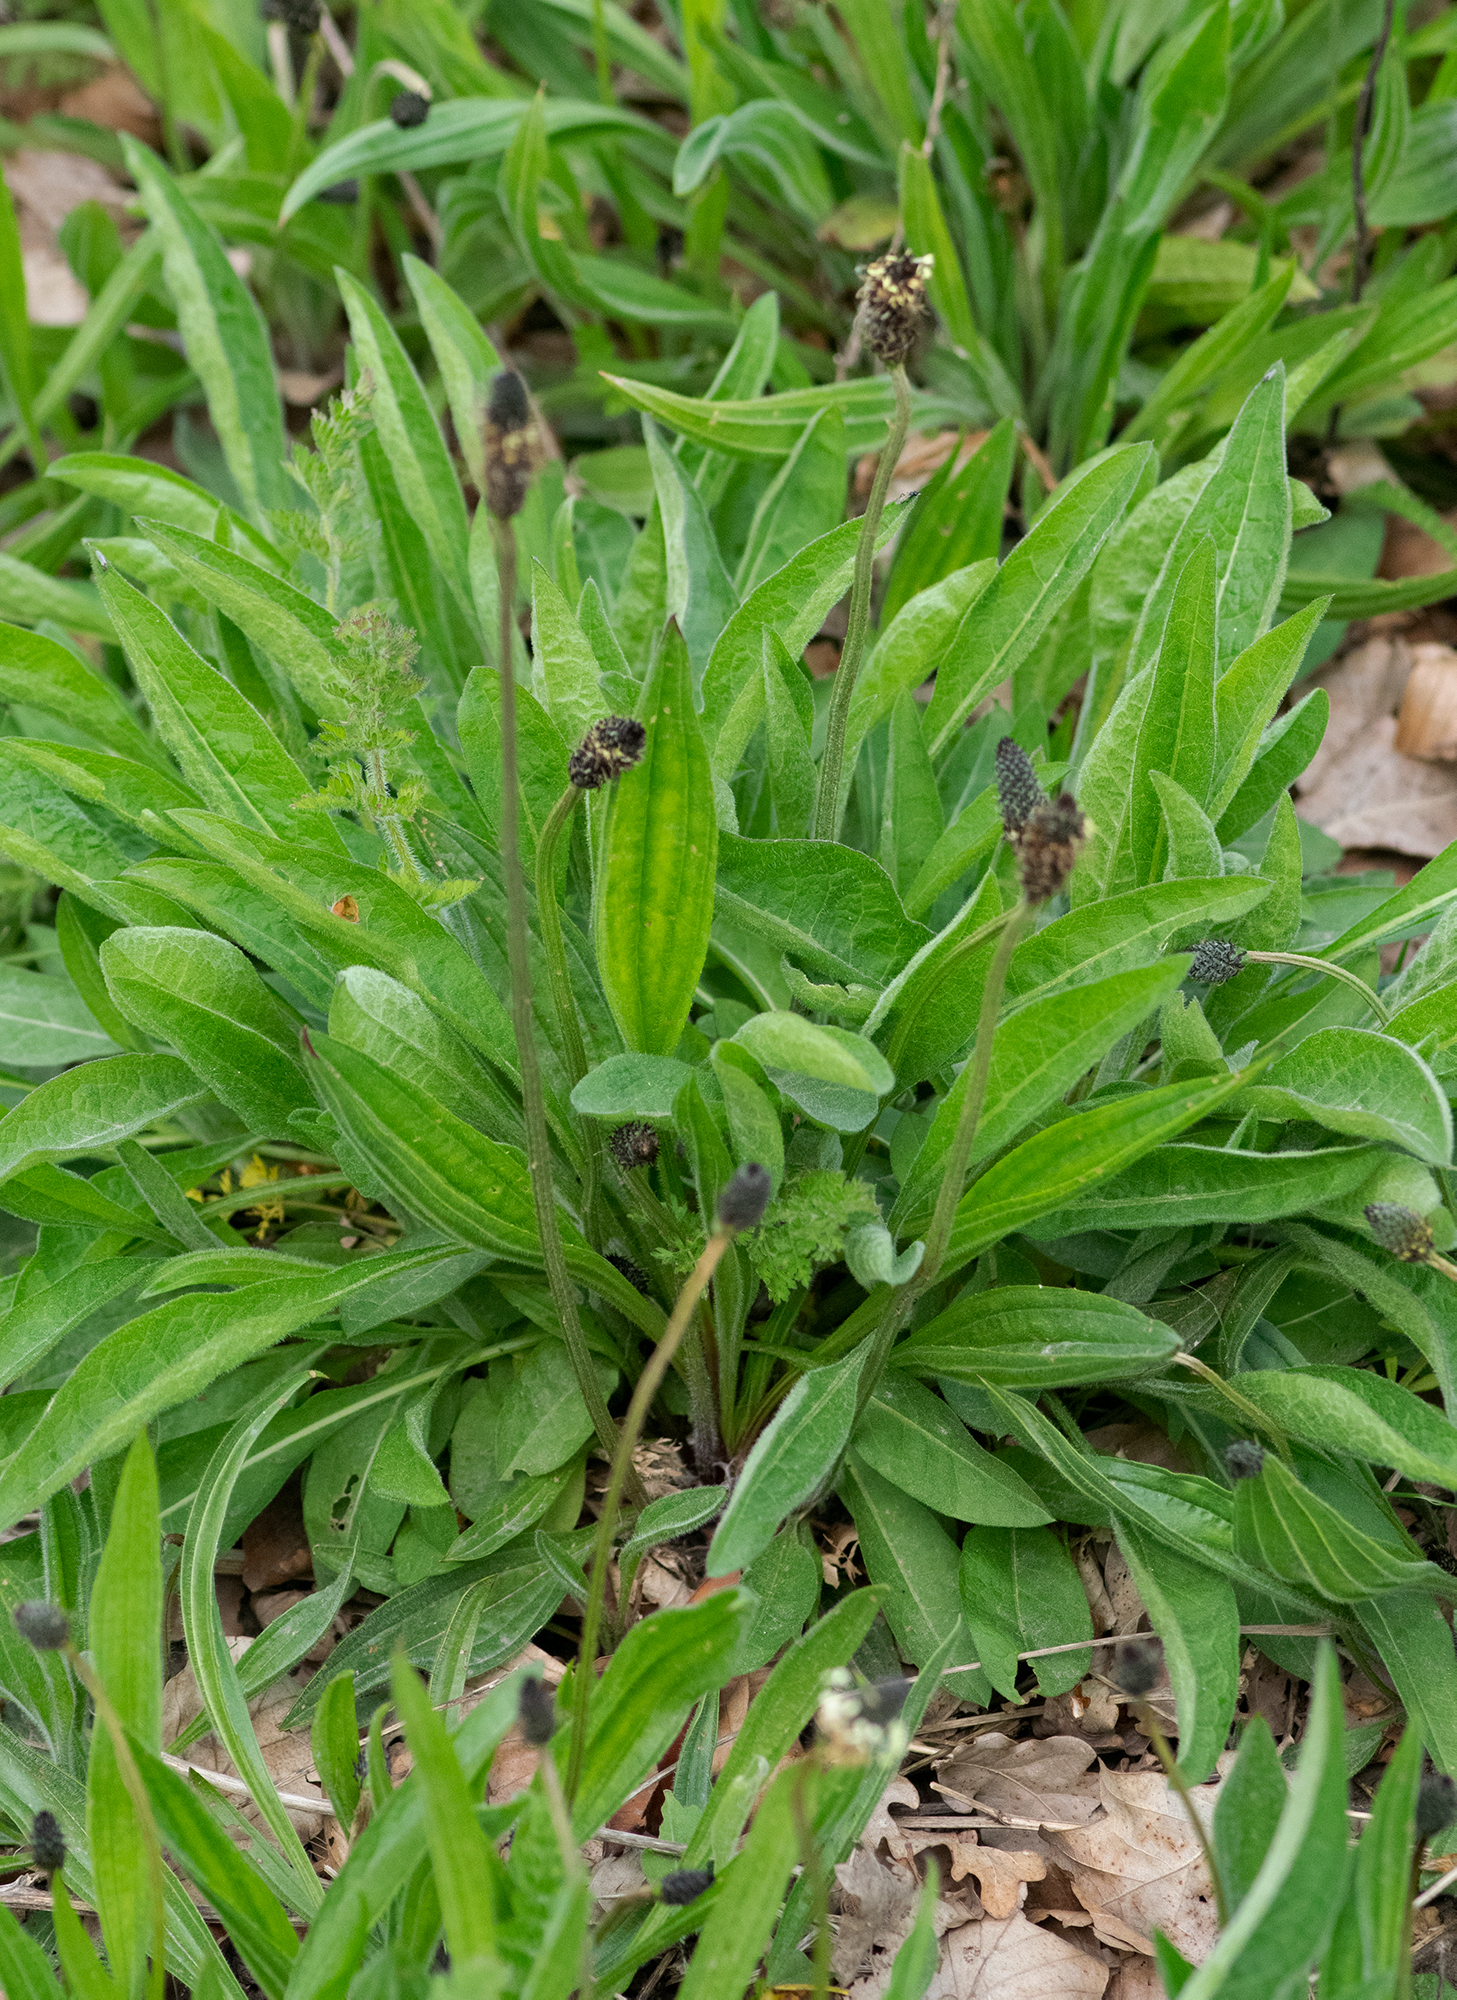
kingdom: Plantae
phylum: Tracheophyta
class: Magnoliopsida
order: Lamiales
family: Plantaginaceae
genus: Plantago
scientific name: Plantago lanceolata
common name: Ribwort plantain
